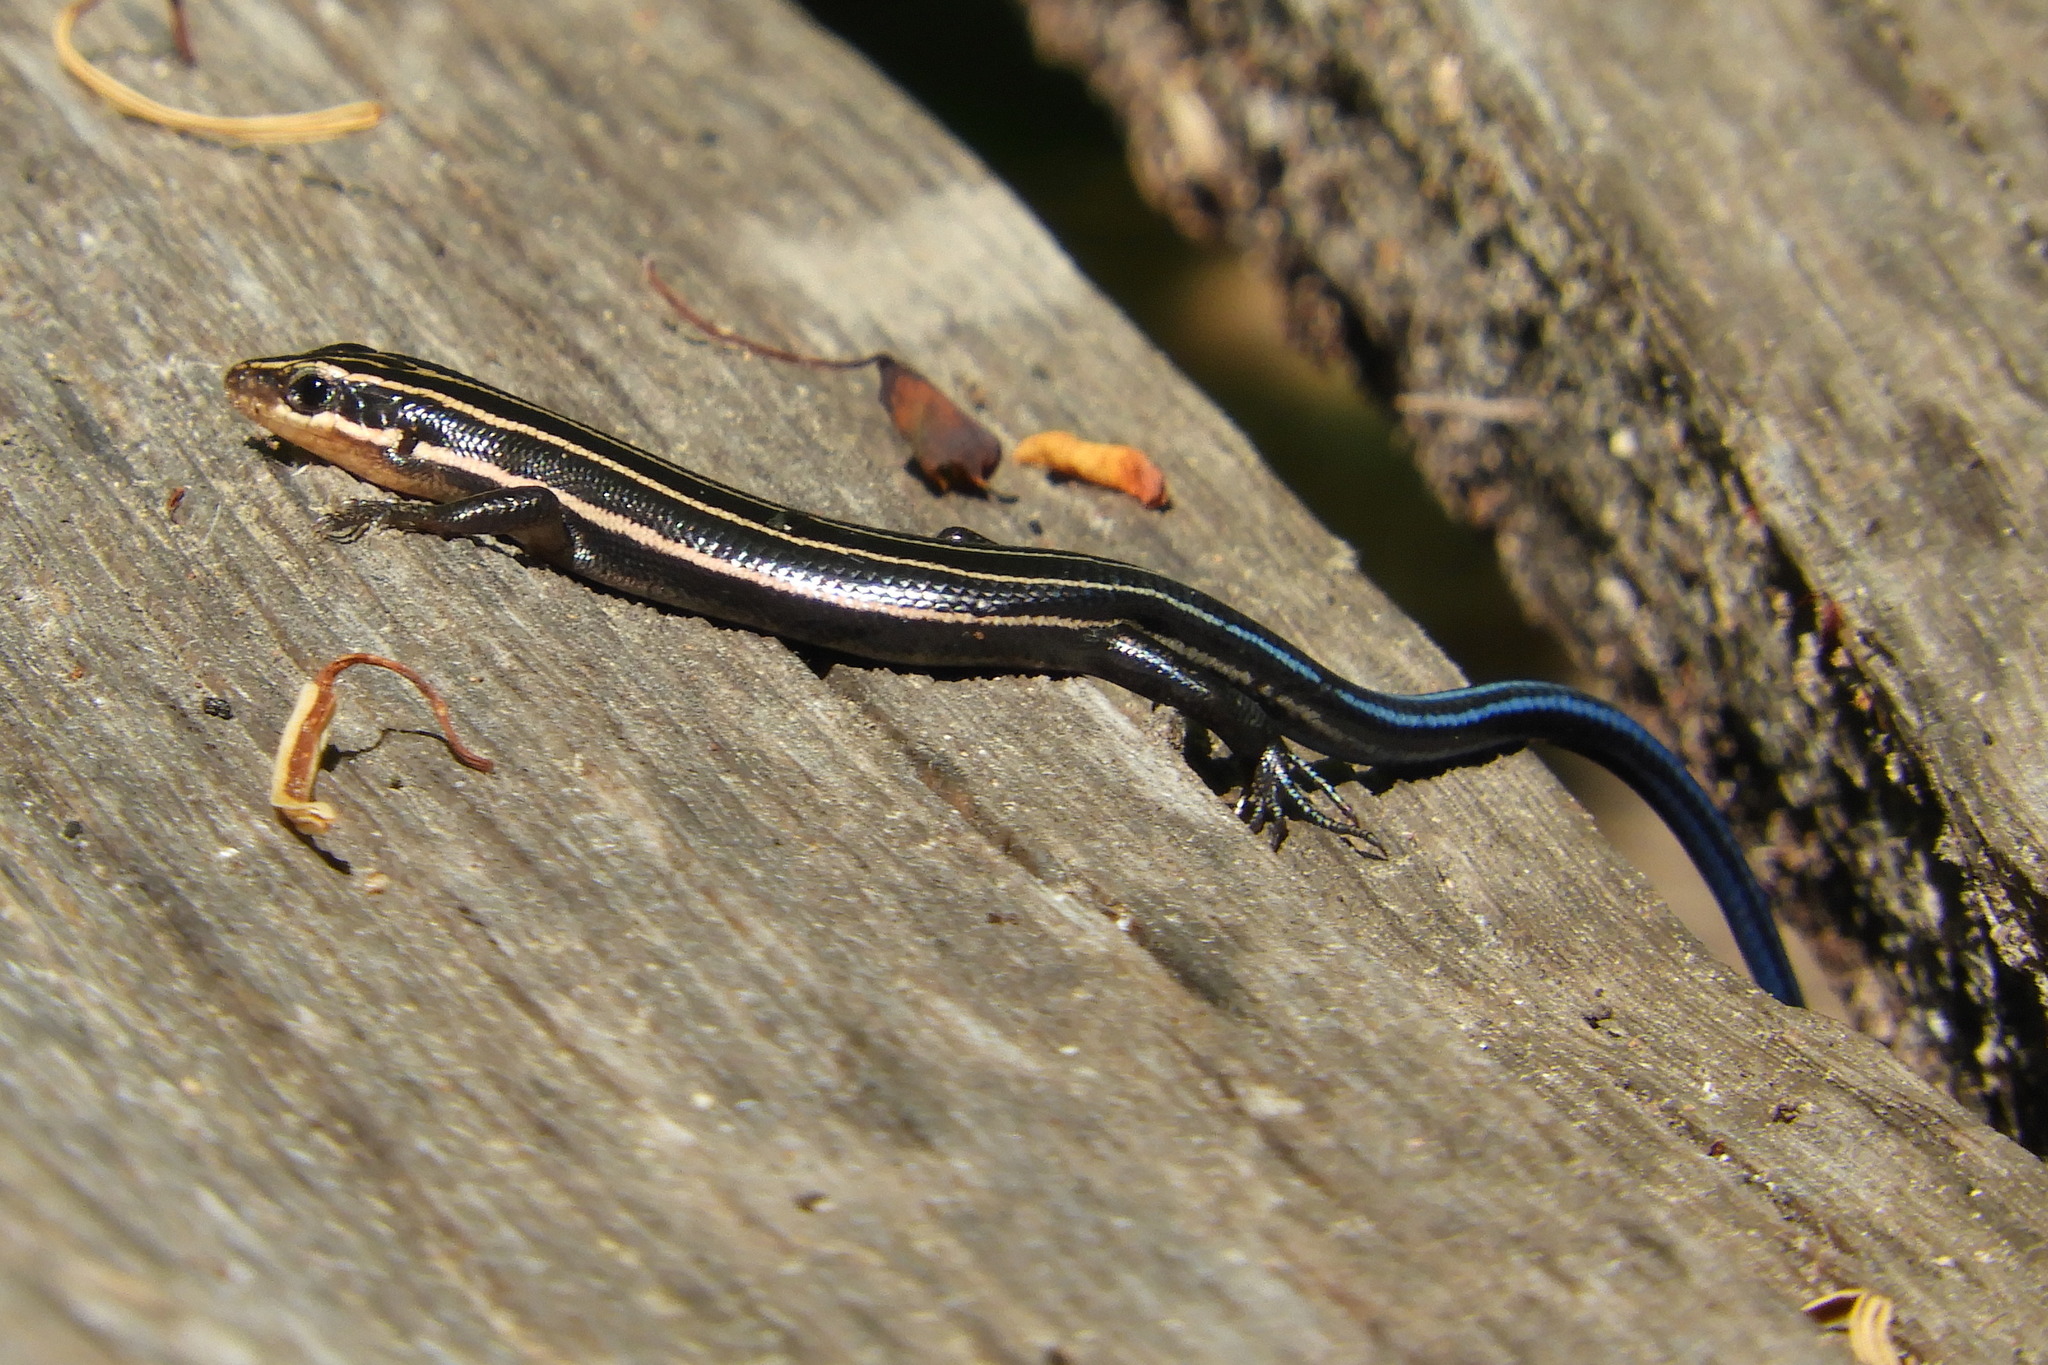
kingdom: Animalia
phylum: Chordata
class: Squamata
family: Scincidae
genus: Plestiodon
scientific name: Plestiodon fasciatus
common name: Five-lined skink
